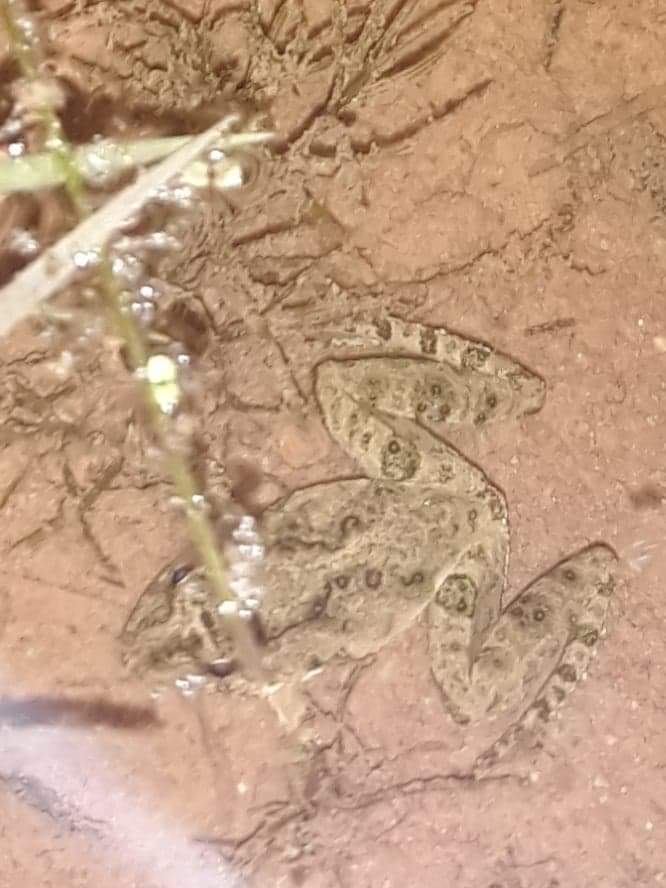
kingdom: Animalia
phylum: Chordata
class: Amphibia
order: Anura
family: Hylidae
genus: Acris
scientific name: Acris blanchardi
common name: Blanchard's cricket frog
